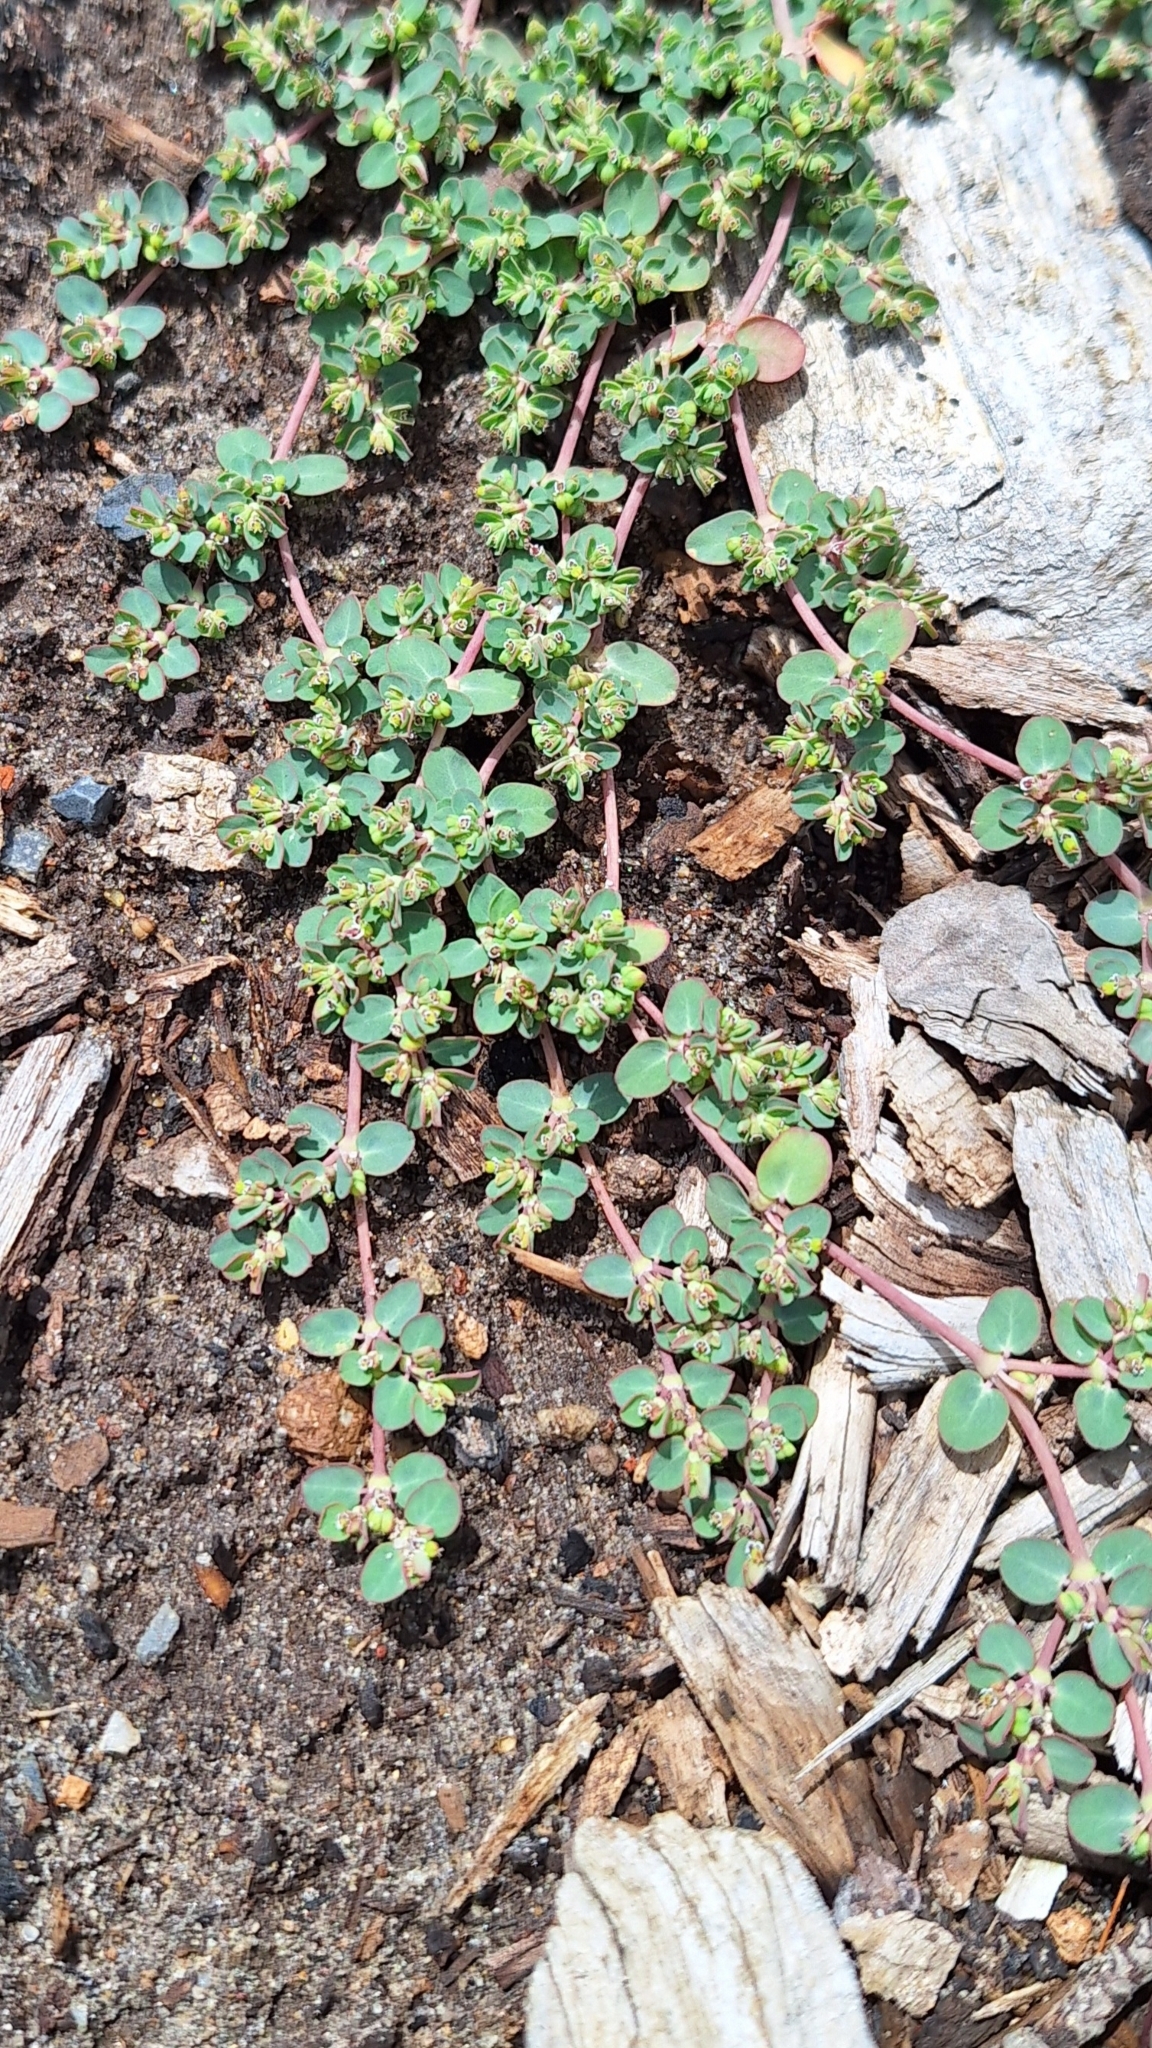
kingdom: Plantae
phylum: Tracheophyta
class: Magnoliopsida
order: Malpighiales
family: Euphorbiaceae
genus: Euphorbia
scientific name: Euphorbia serpens
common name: Matted sandmat
